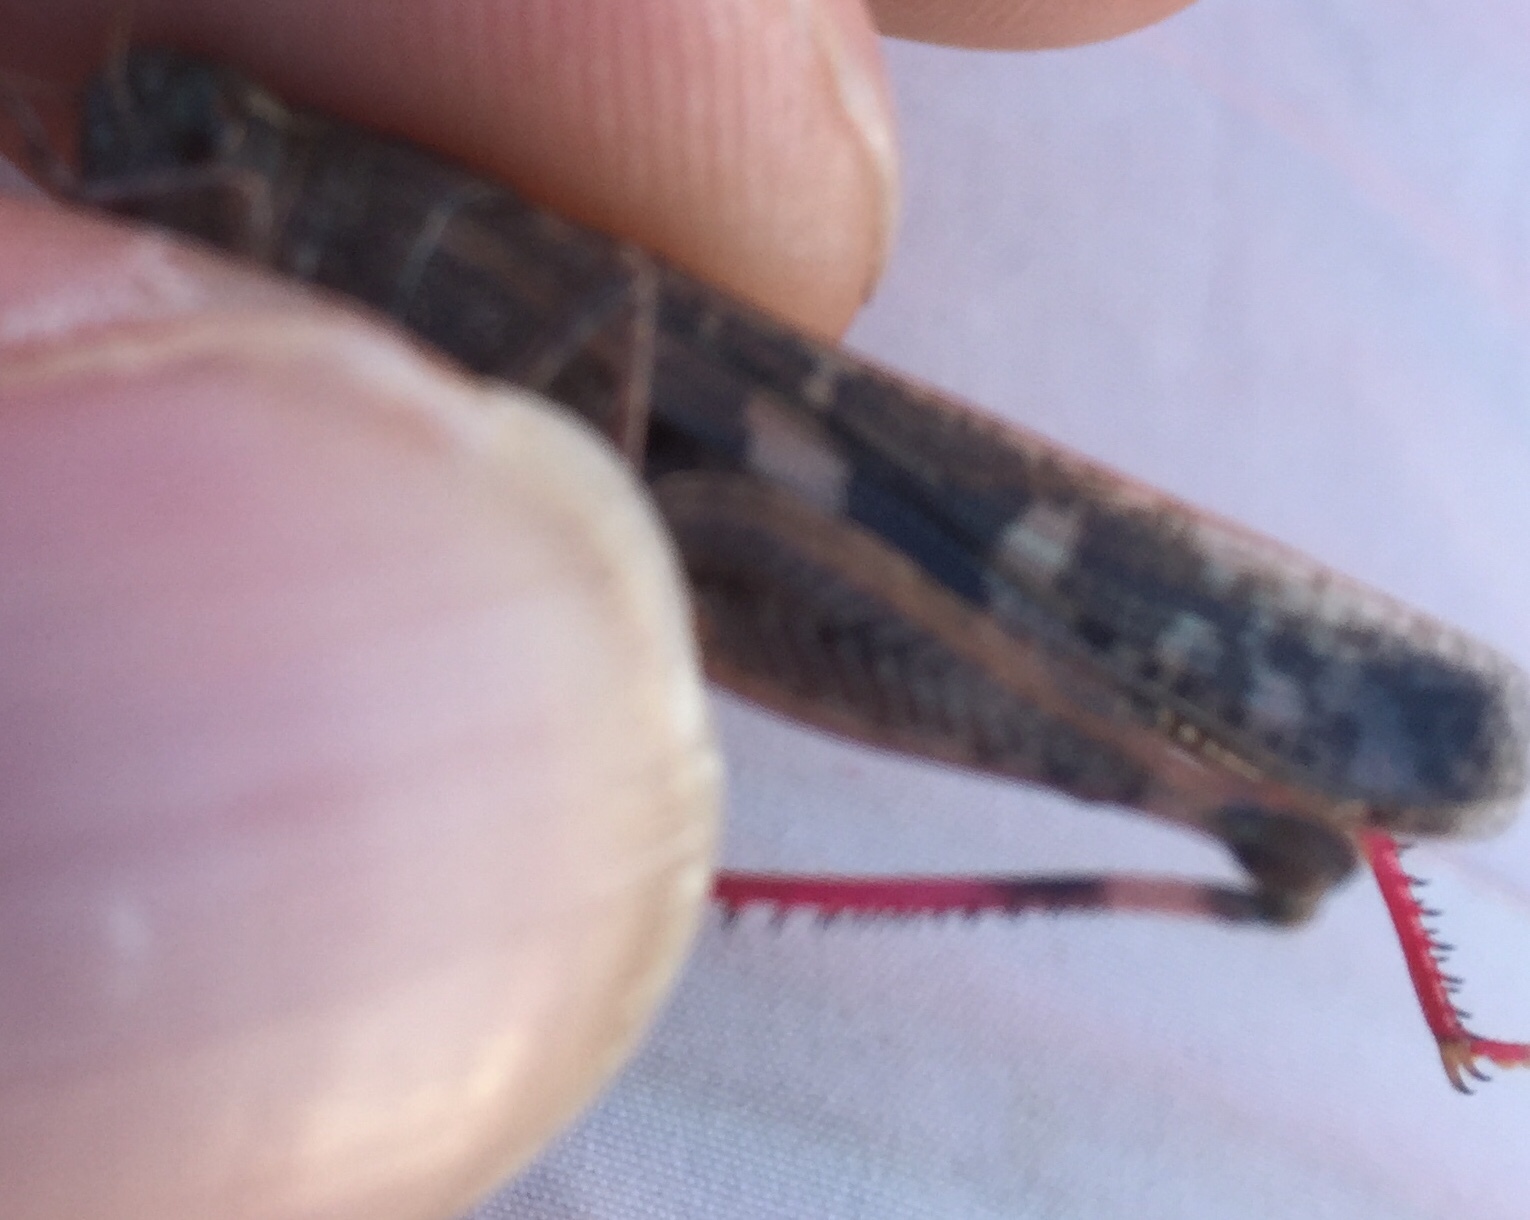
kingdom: Animalia
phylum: Arthropoda
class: Insecta
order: Orthoptera
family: Acrididae
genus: Aiolopus
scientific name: Aiolopus strepens
